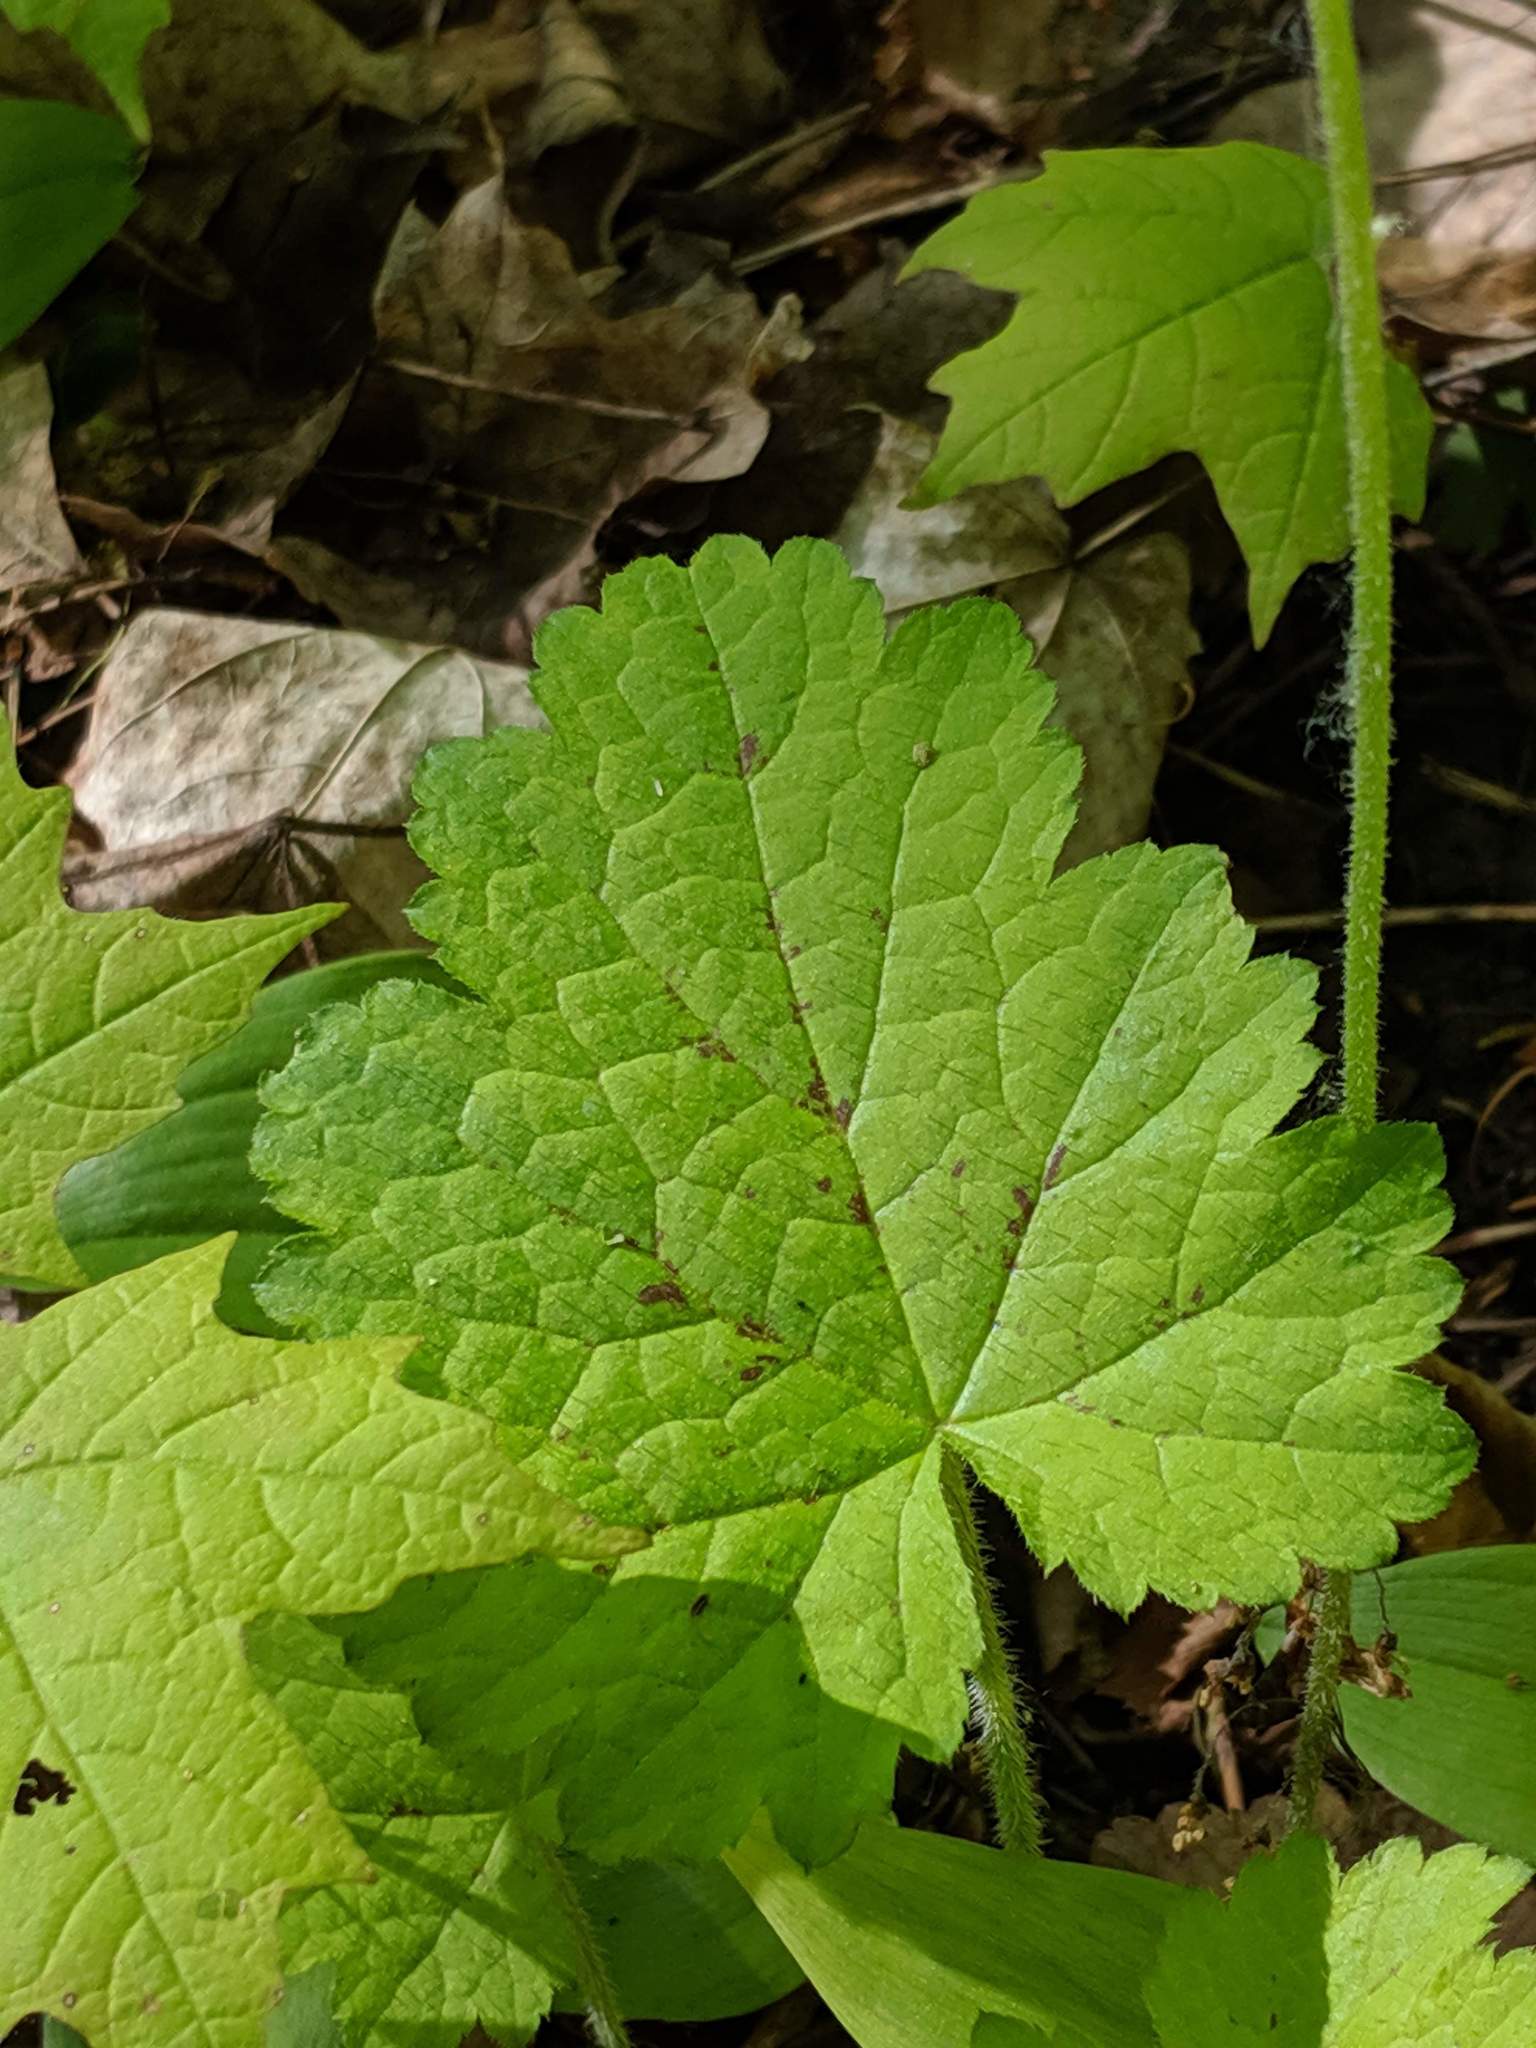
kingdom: Plantae
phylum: Tracheophyta
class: Magnoliopsida
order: Saxifragales
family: Saxifragaceae
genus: Tiarella
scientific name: Tiarella stolonifera
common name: Stoloniferous foamflower
